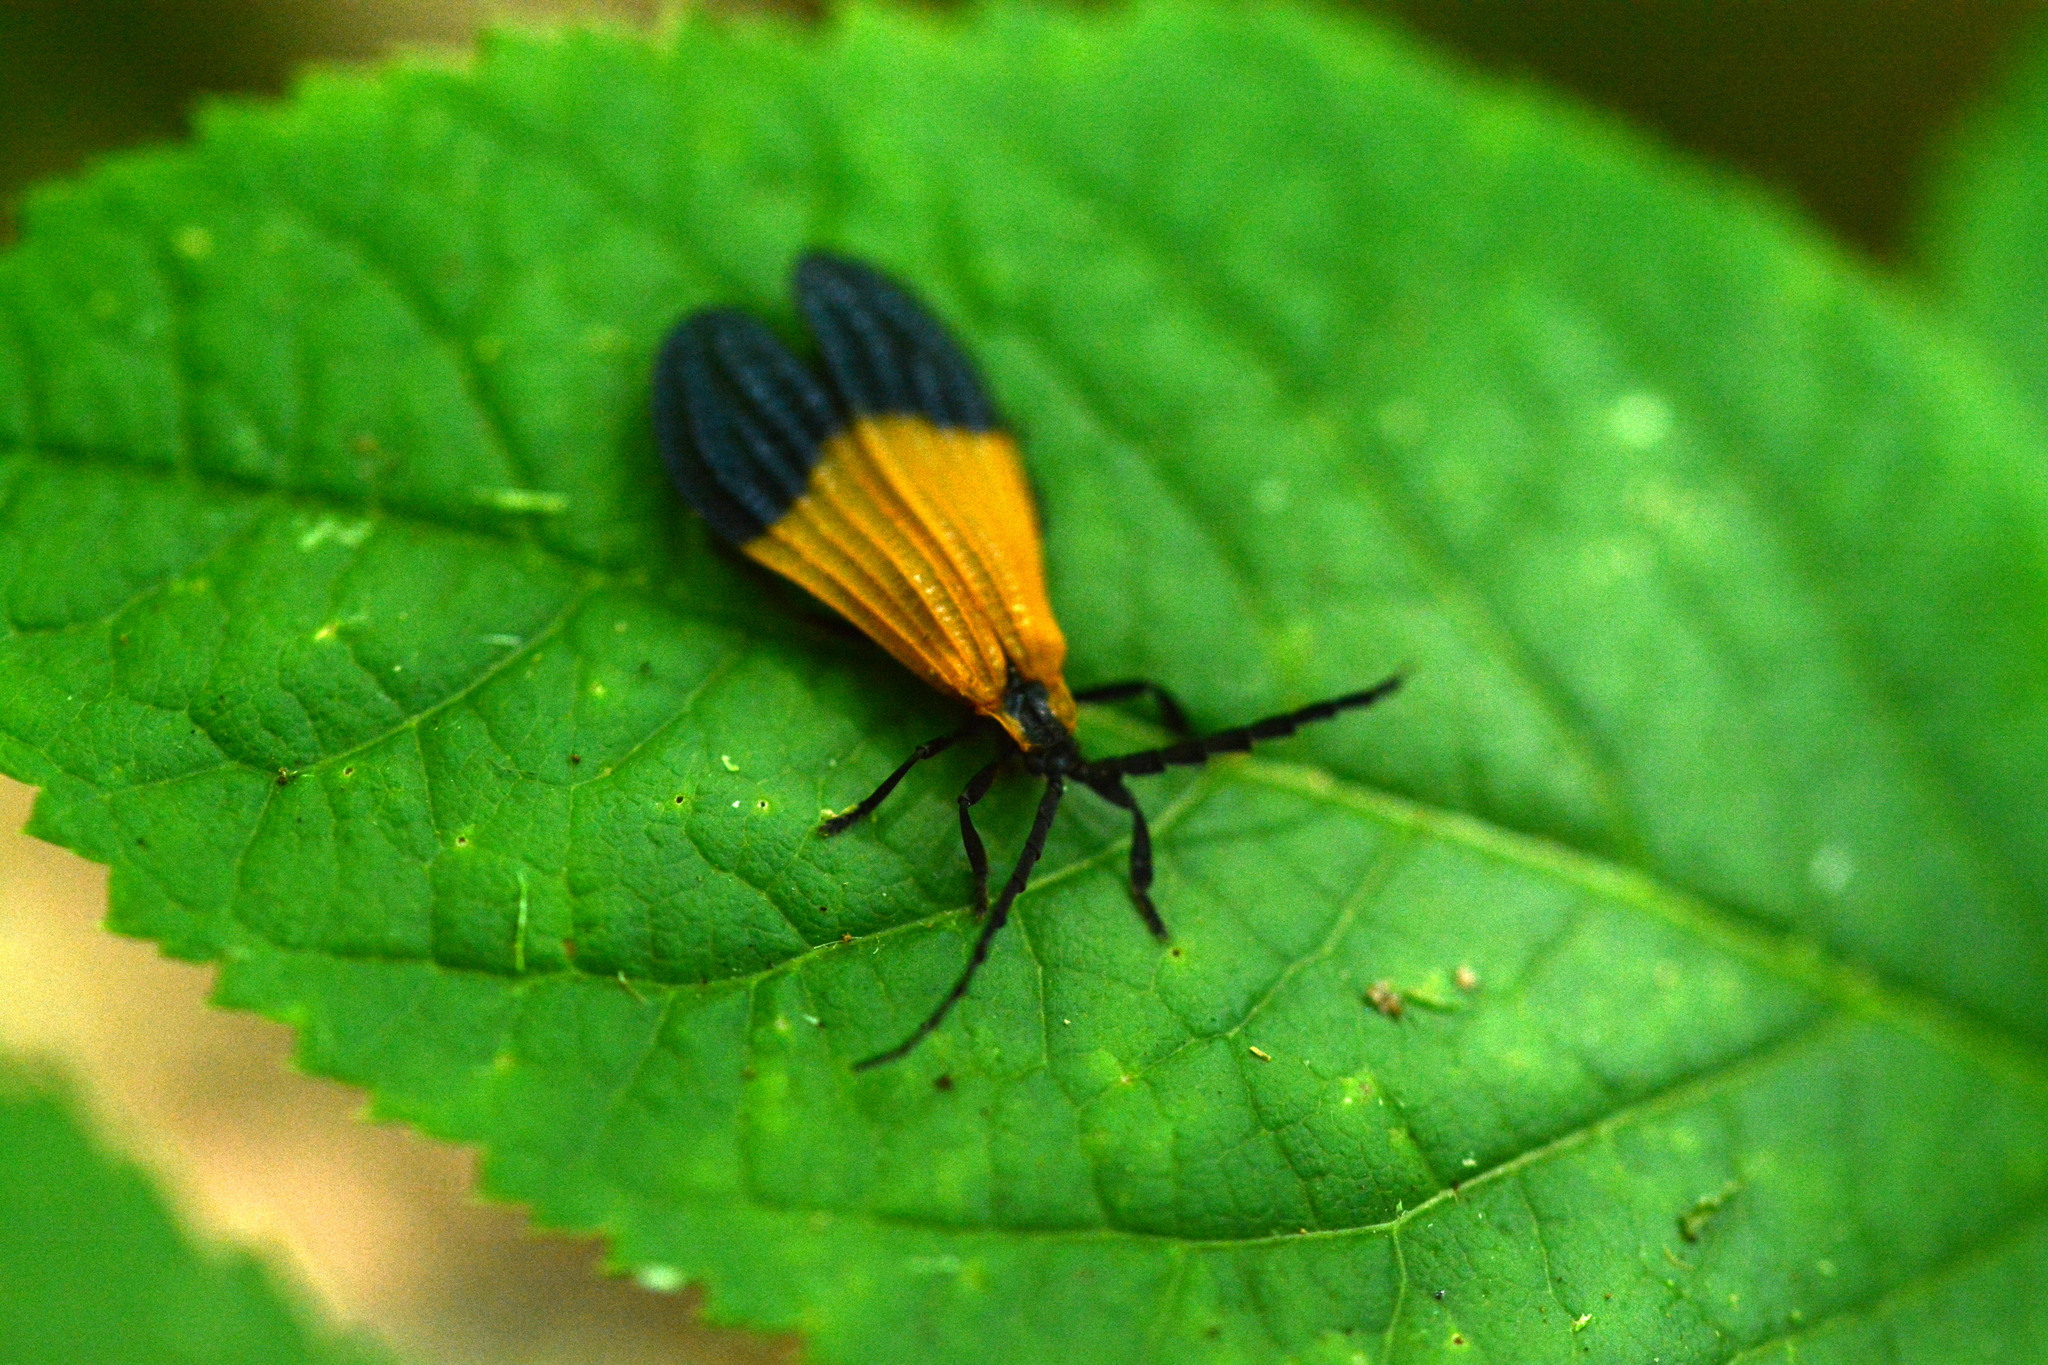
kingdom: Animalia
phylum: Arthropoda
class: Insecta
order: Coleoptera
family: Lycidae
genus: Calopteron
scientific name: Calopteron terminale
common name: End band net-winged beetle
